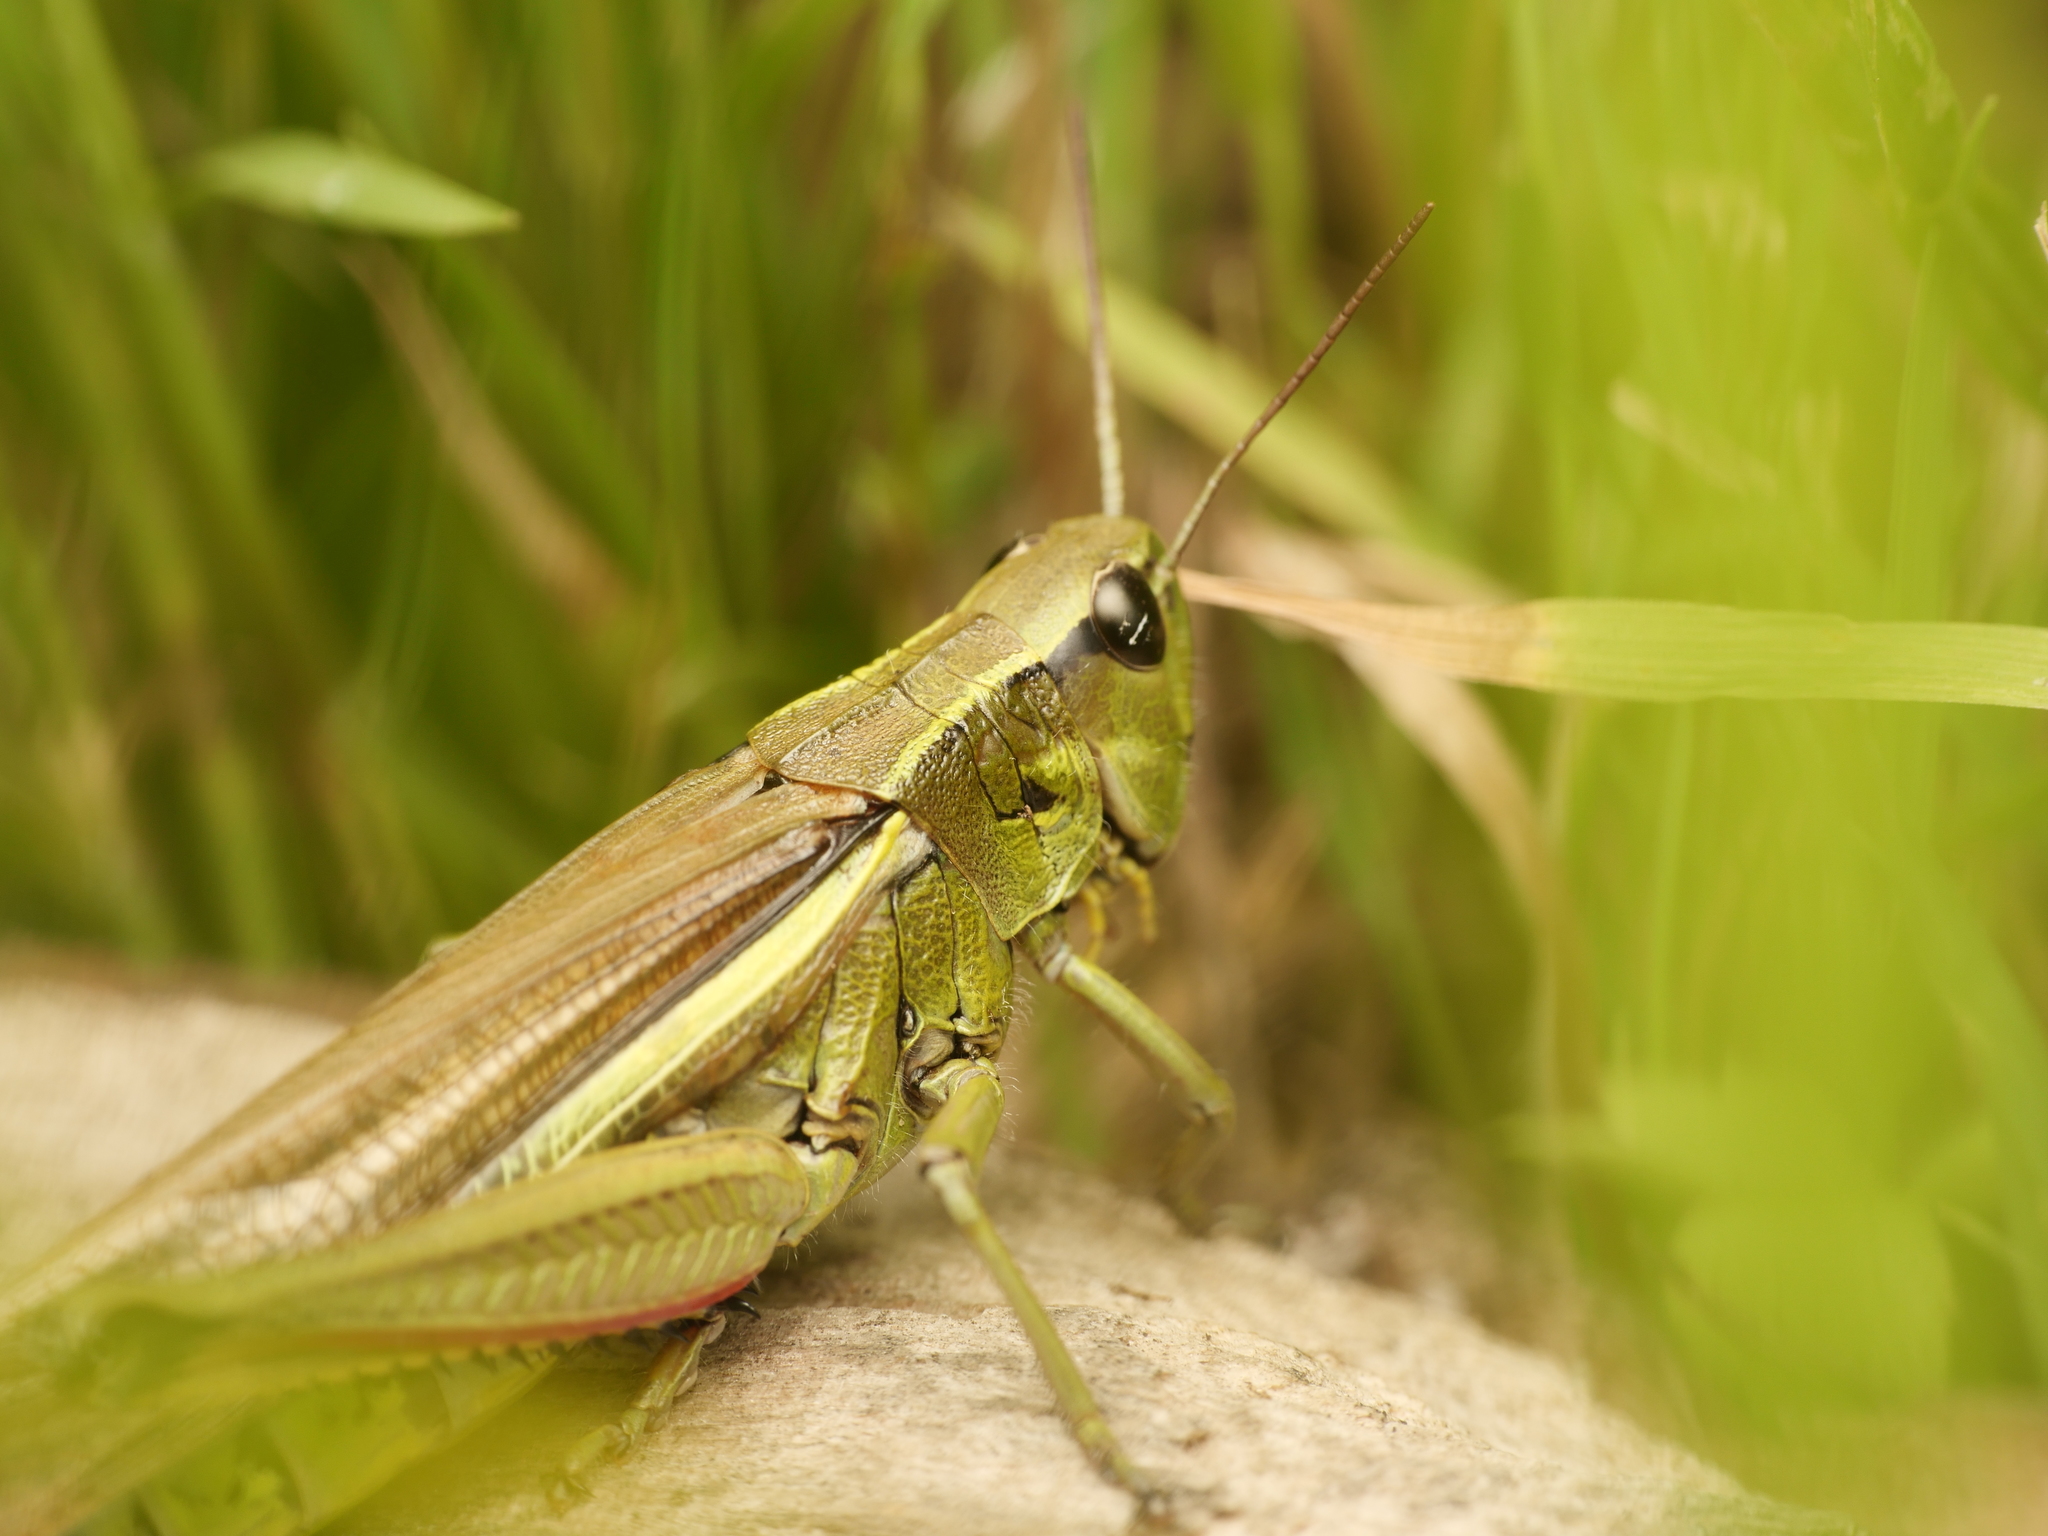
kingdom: Animalia
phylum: Arthropoda
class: Insecta
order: Orthoptera
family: Acrididae
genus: Stethophyma
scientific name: Stethophyma grossum
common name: Large marsh grasshopper
